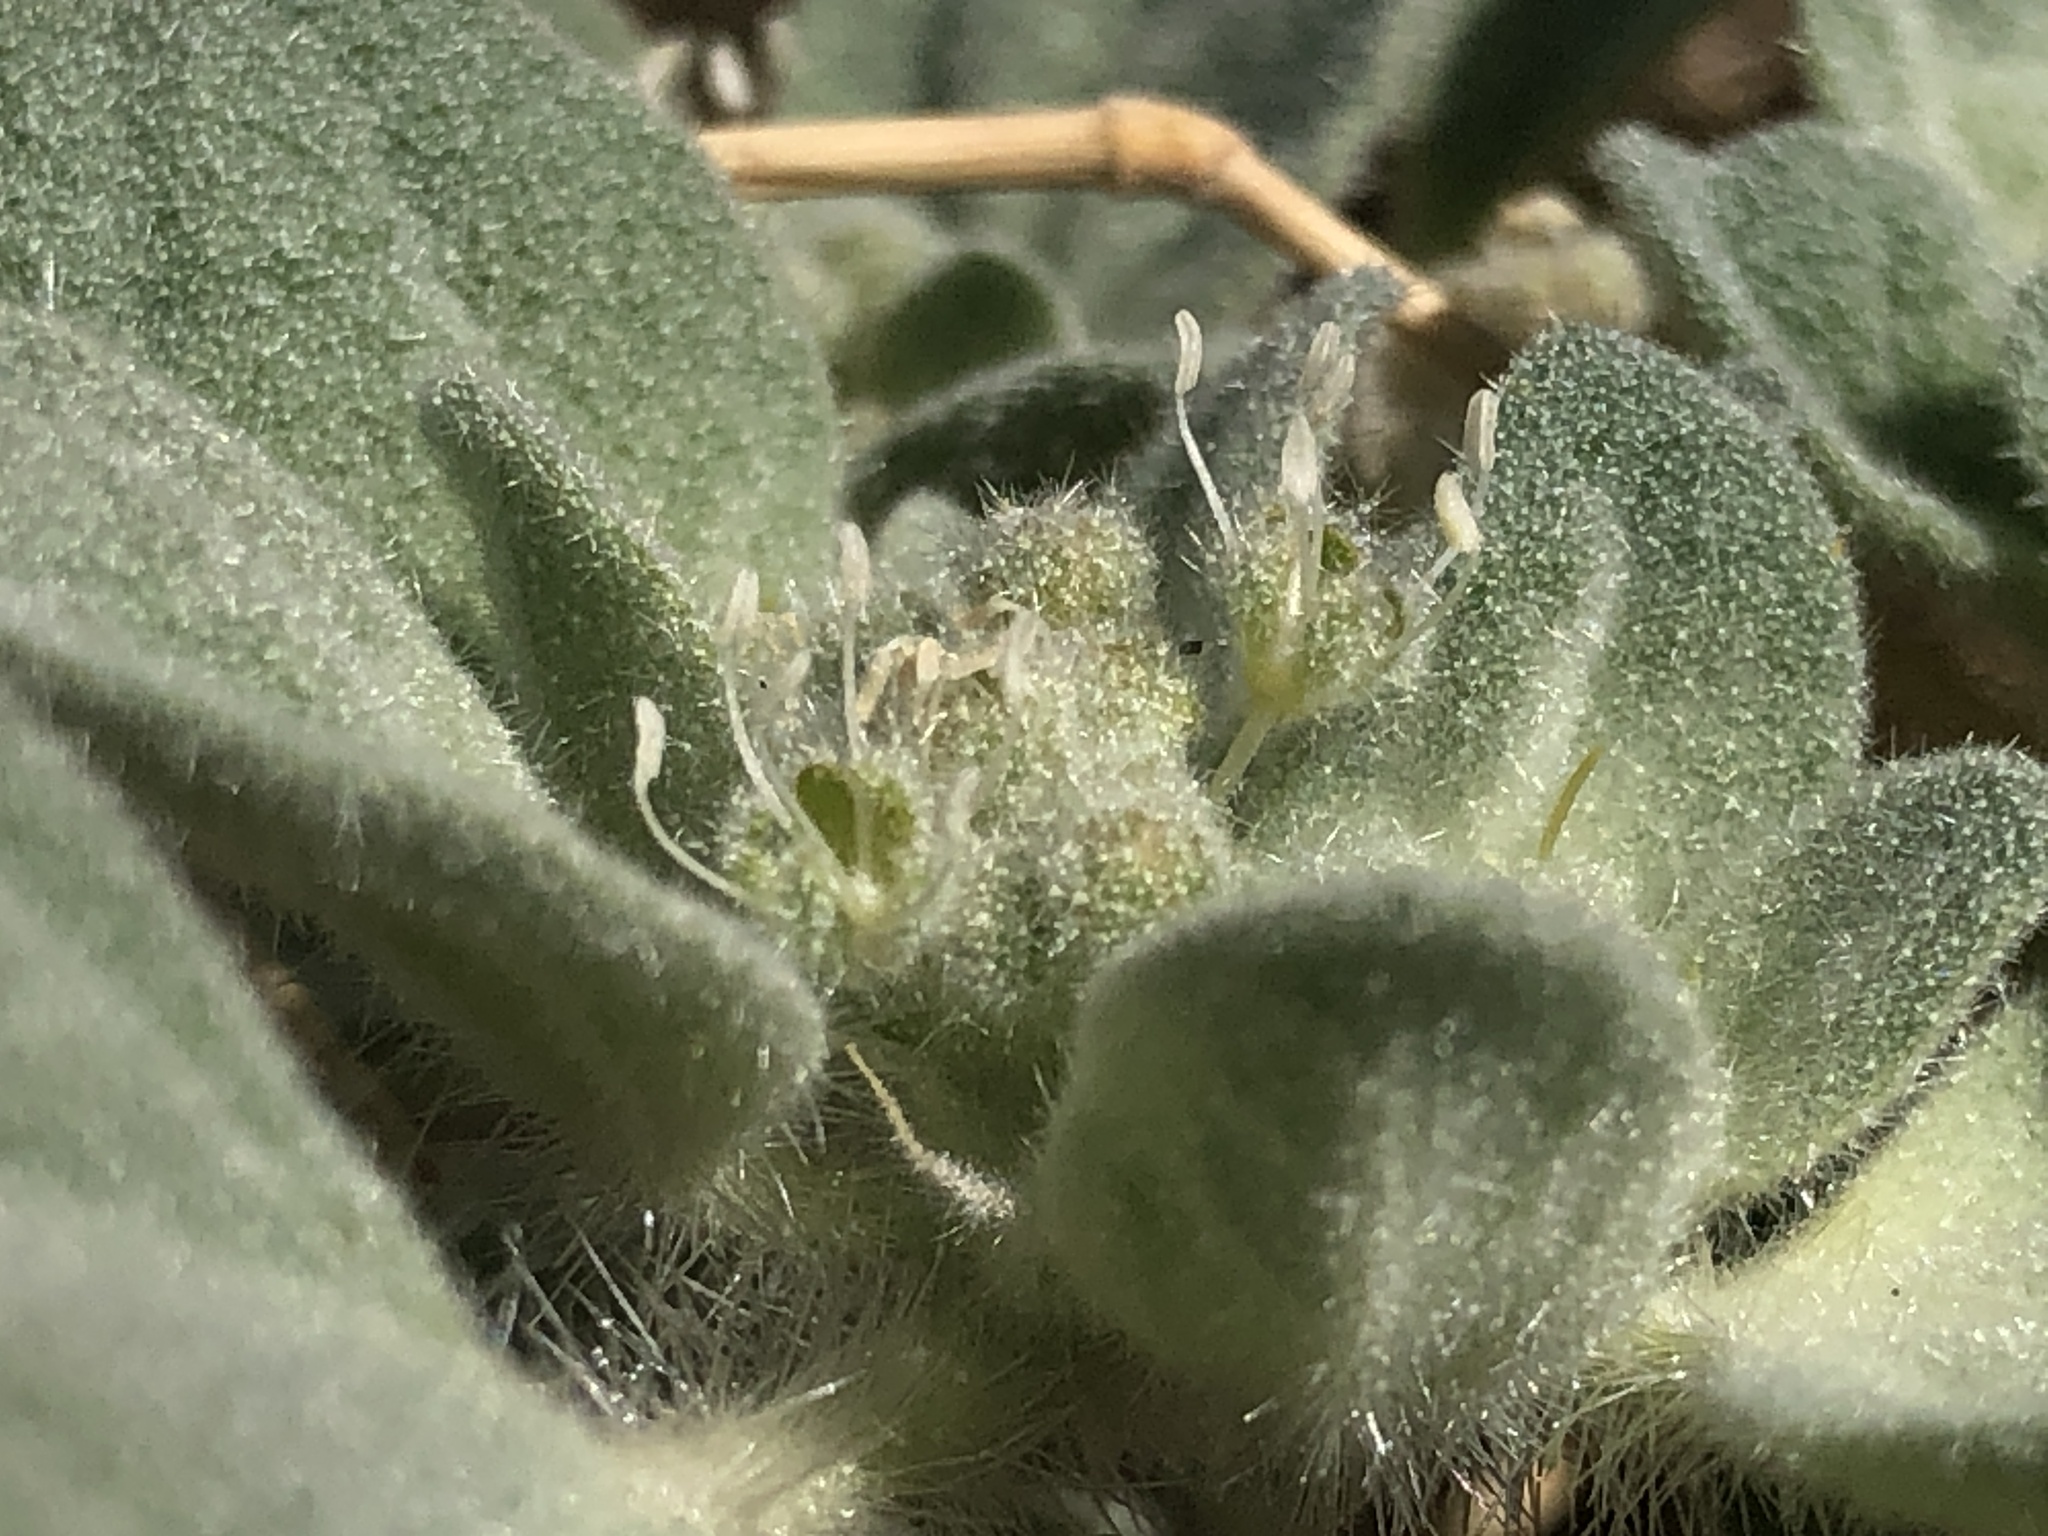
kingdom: Plantae
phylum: Tracheophyta
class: Magnoliopsida
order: Malpighiales
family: Euphorbiaceae
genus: Croton
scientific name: Croton setiger
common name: Dove weed
